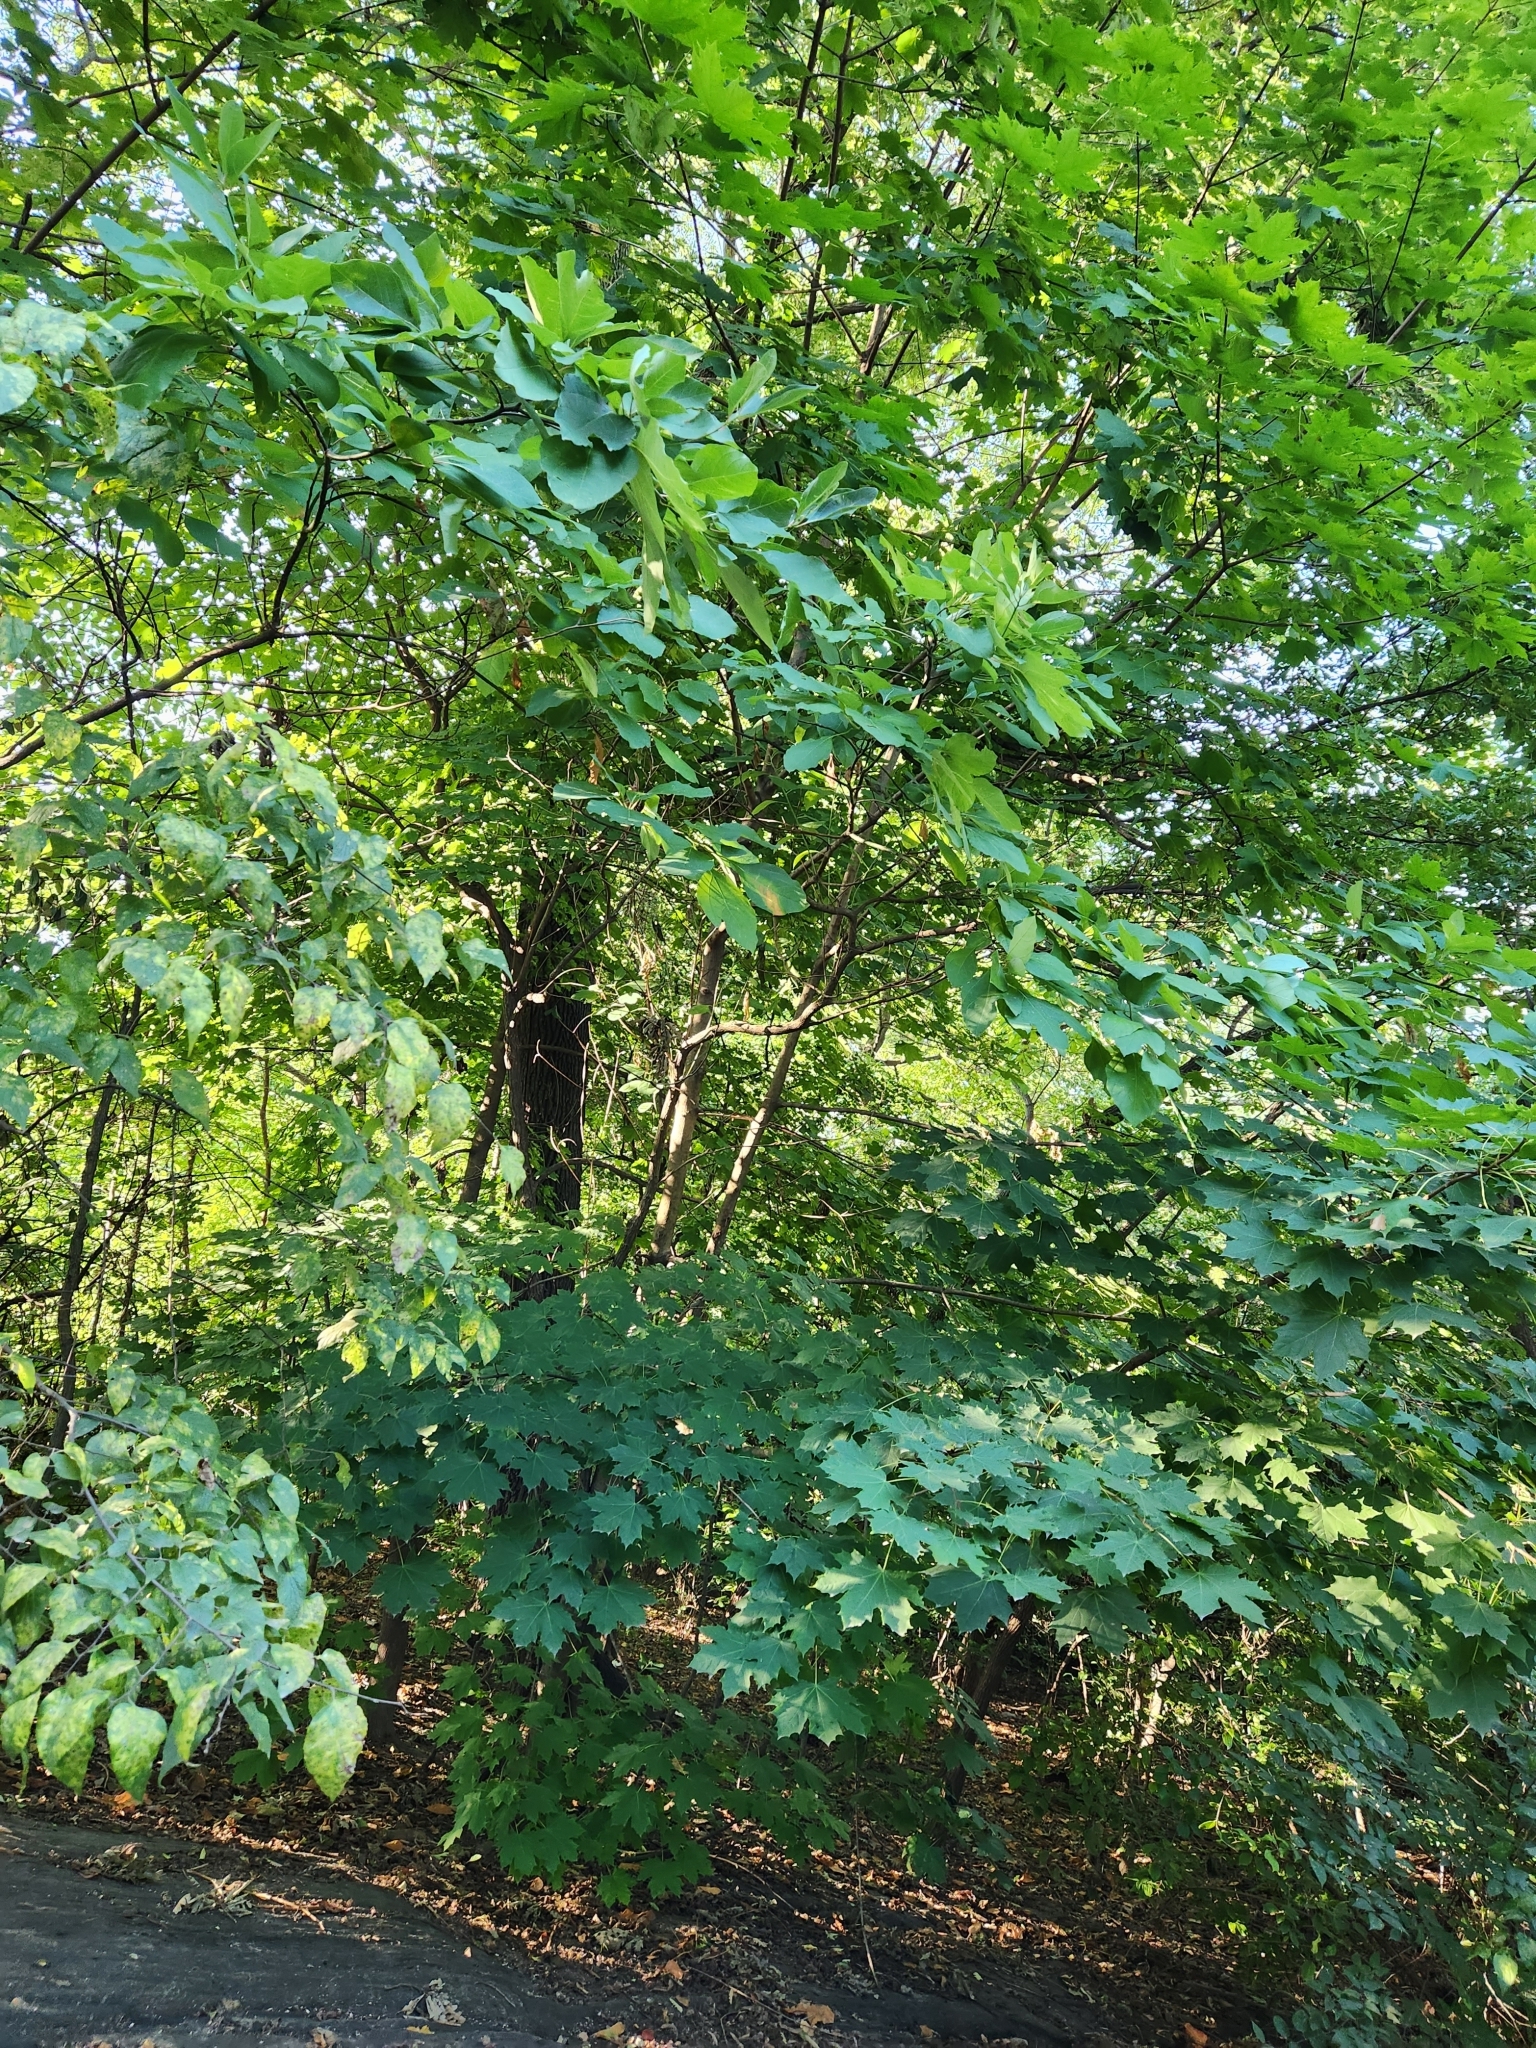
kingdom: Plantae
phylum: Tracheophyta
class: Magnoliopsida
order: Sapindales
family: Sapindaceae
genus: Acer
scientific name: Acer platanoides
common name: Norway maple
